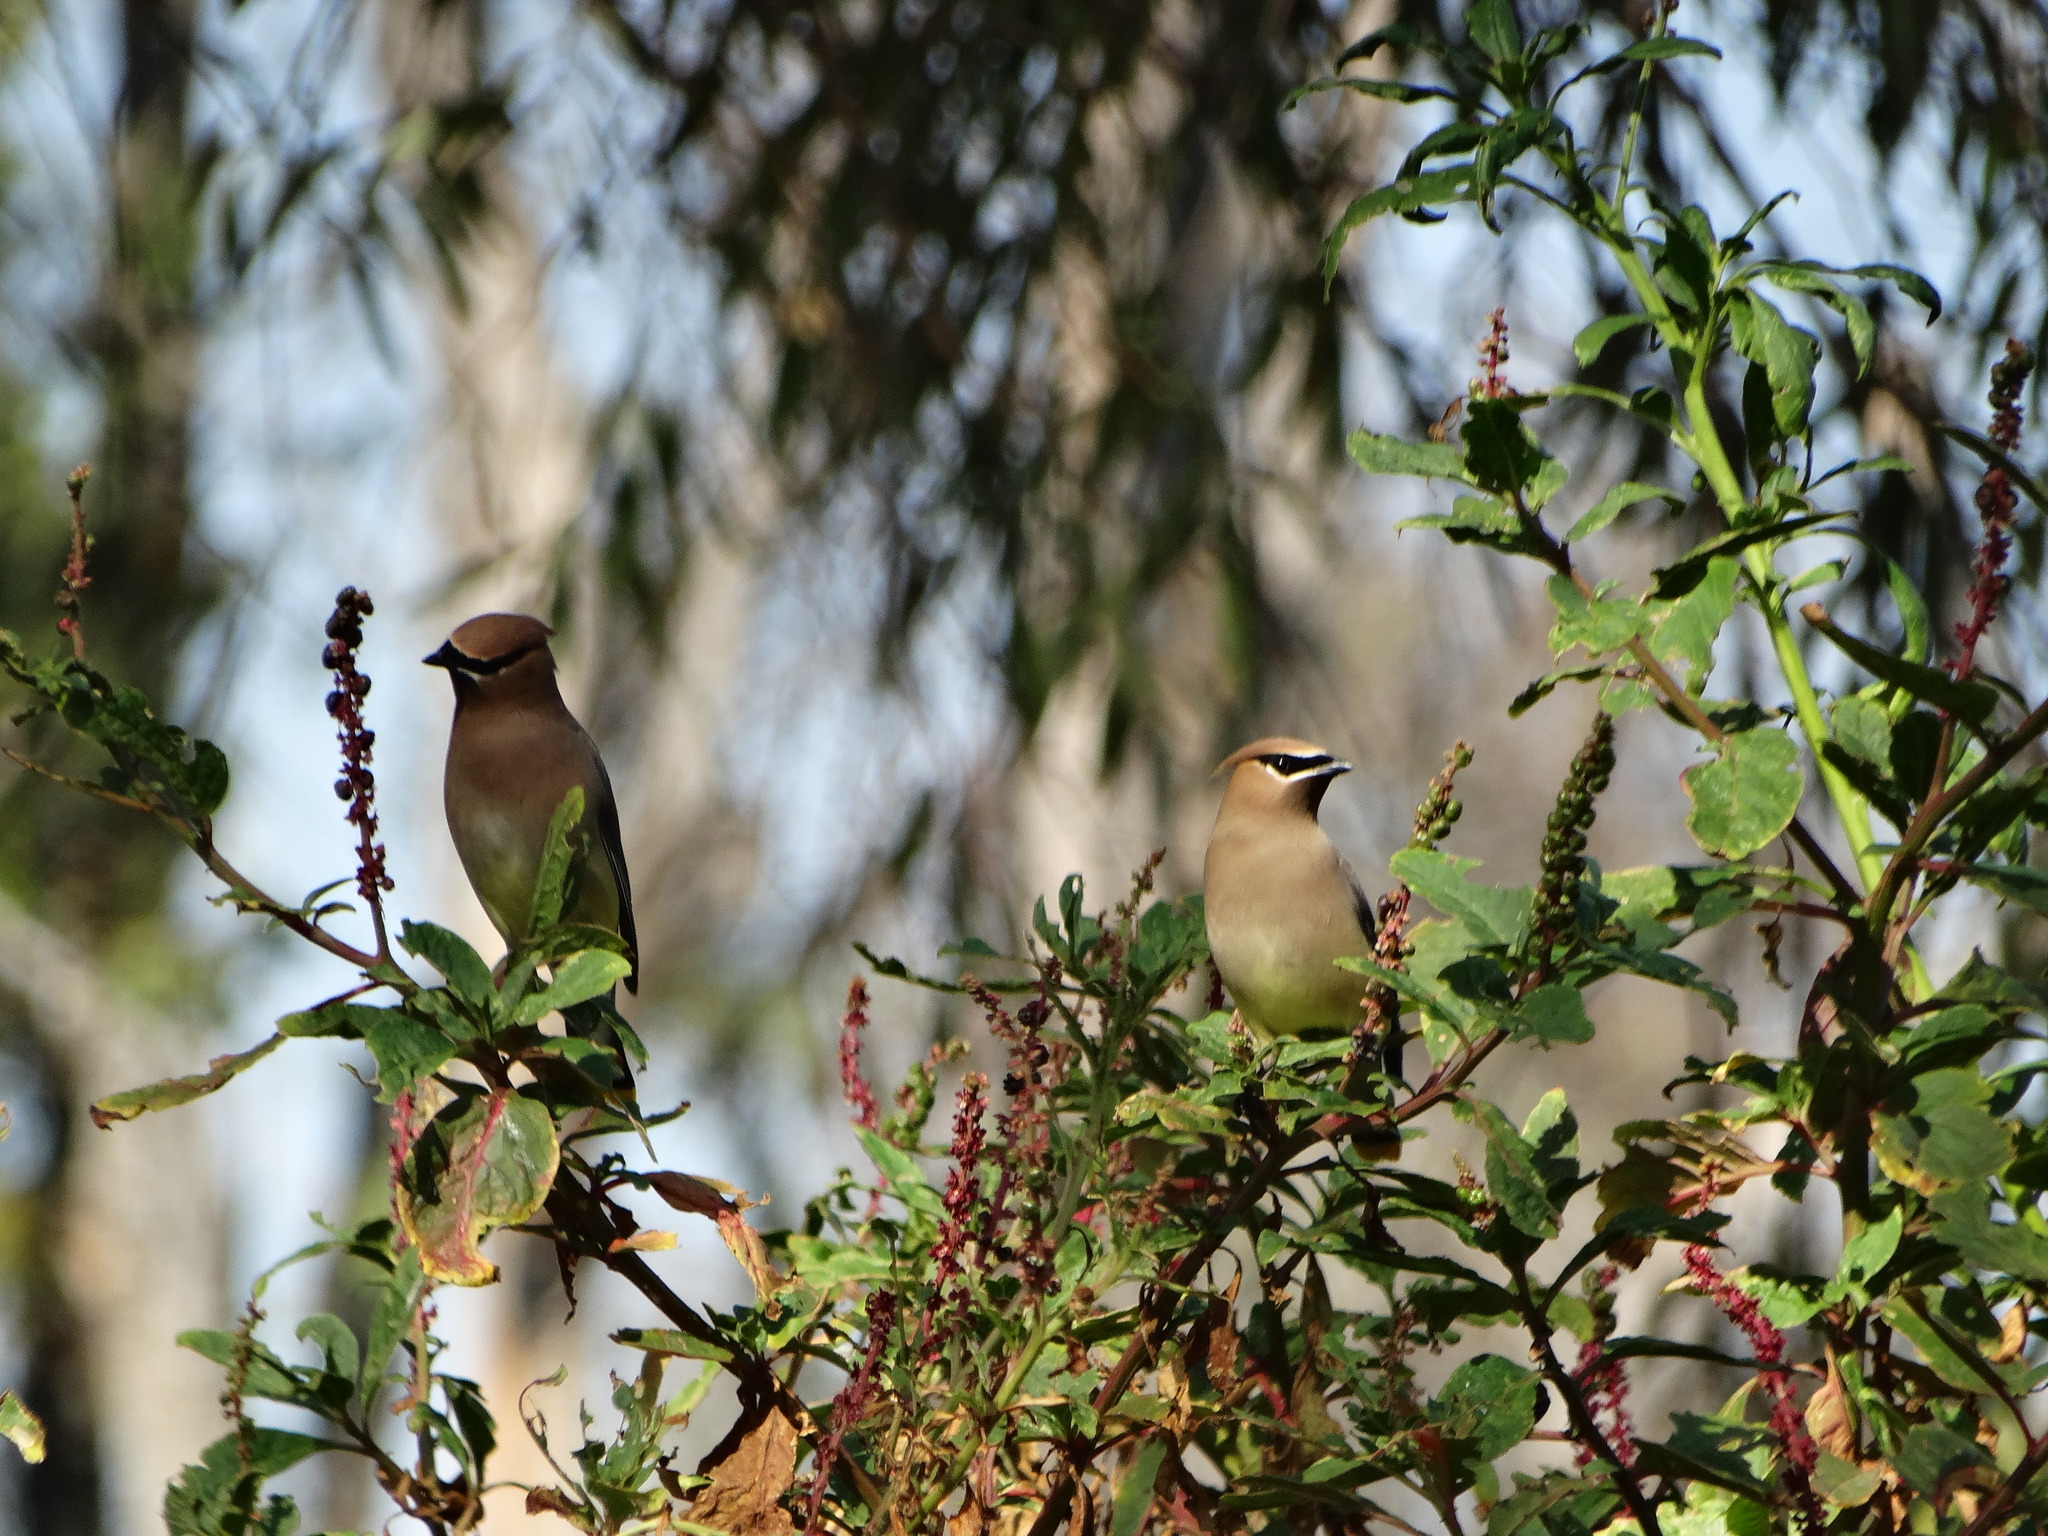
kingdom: Animalia
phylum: Chordata
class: Aves
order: Passeriformes
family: Bombycillidae
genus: Bombycilla
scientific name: Bombycilla cedrorum
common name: Cedar waxwing
